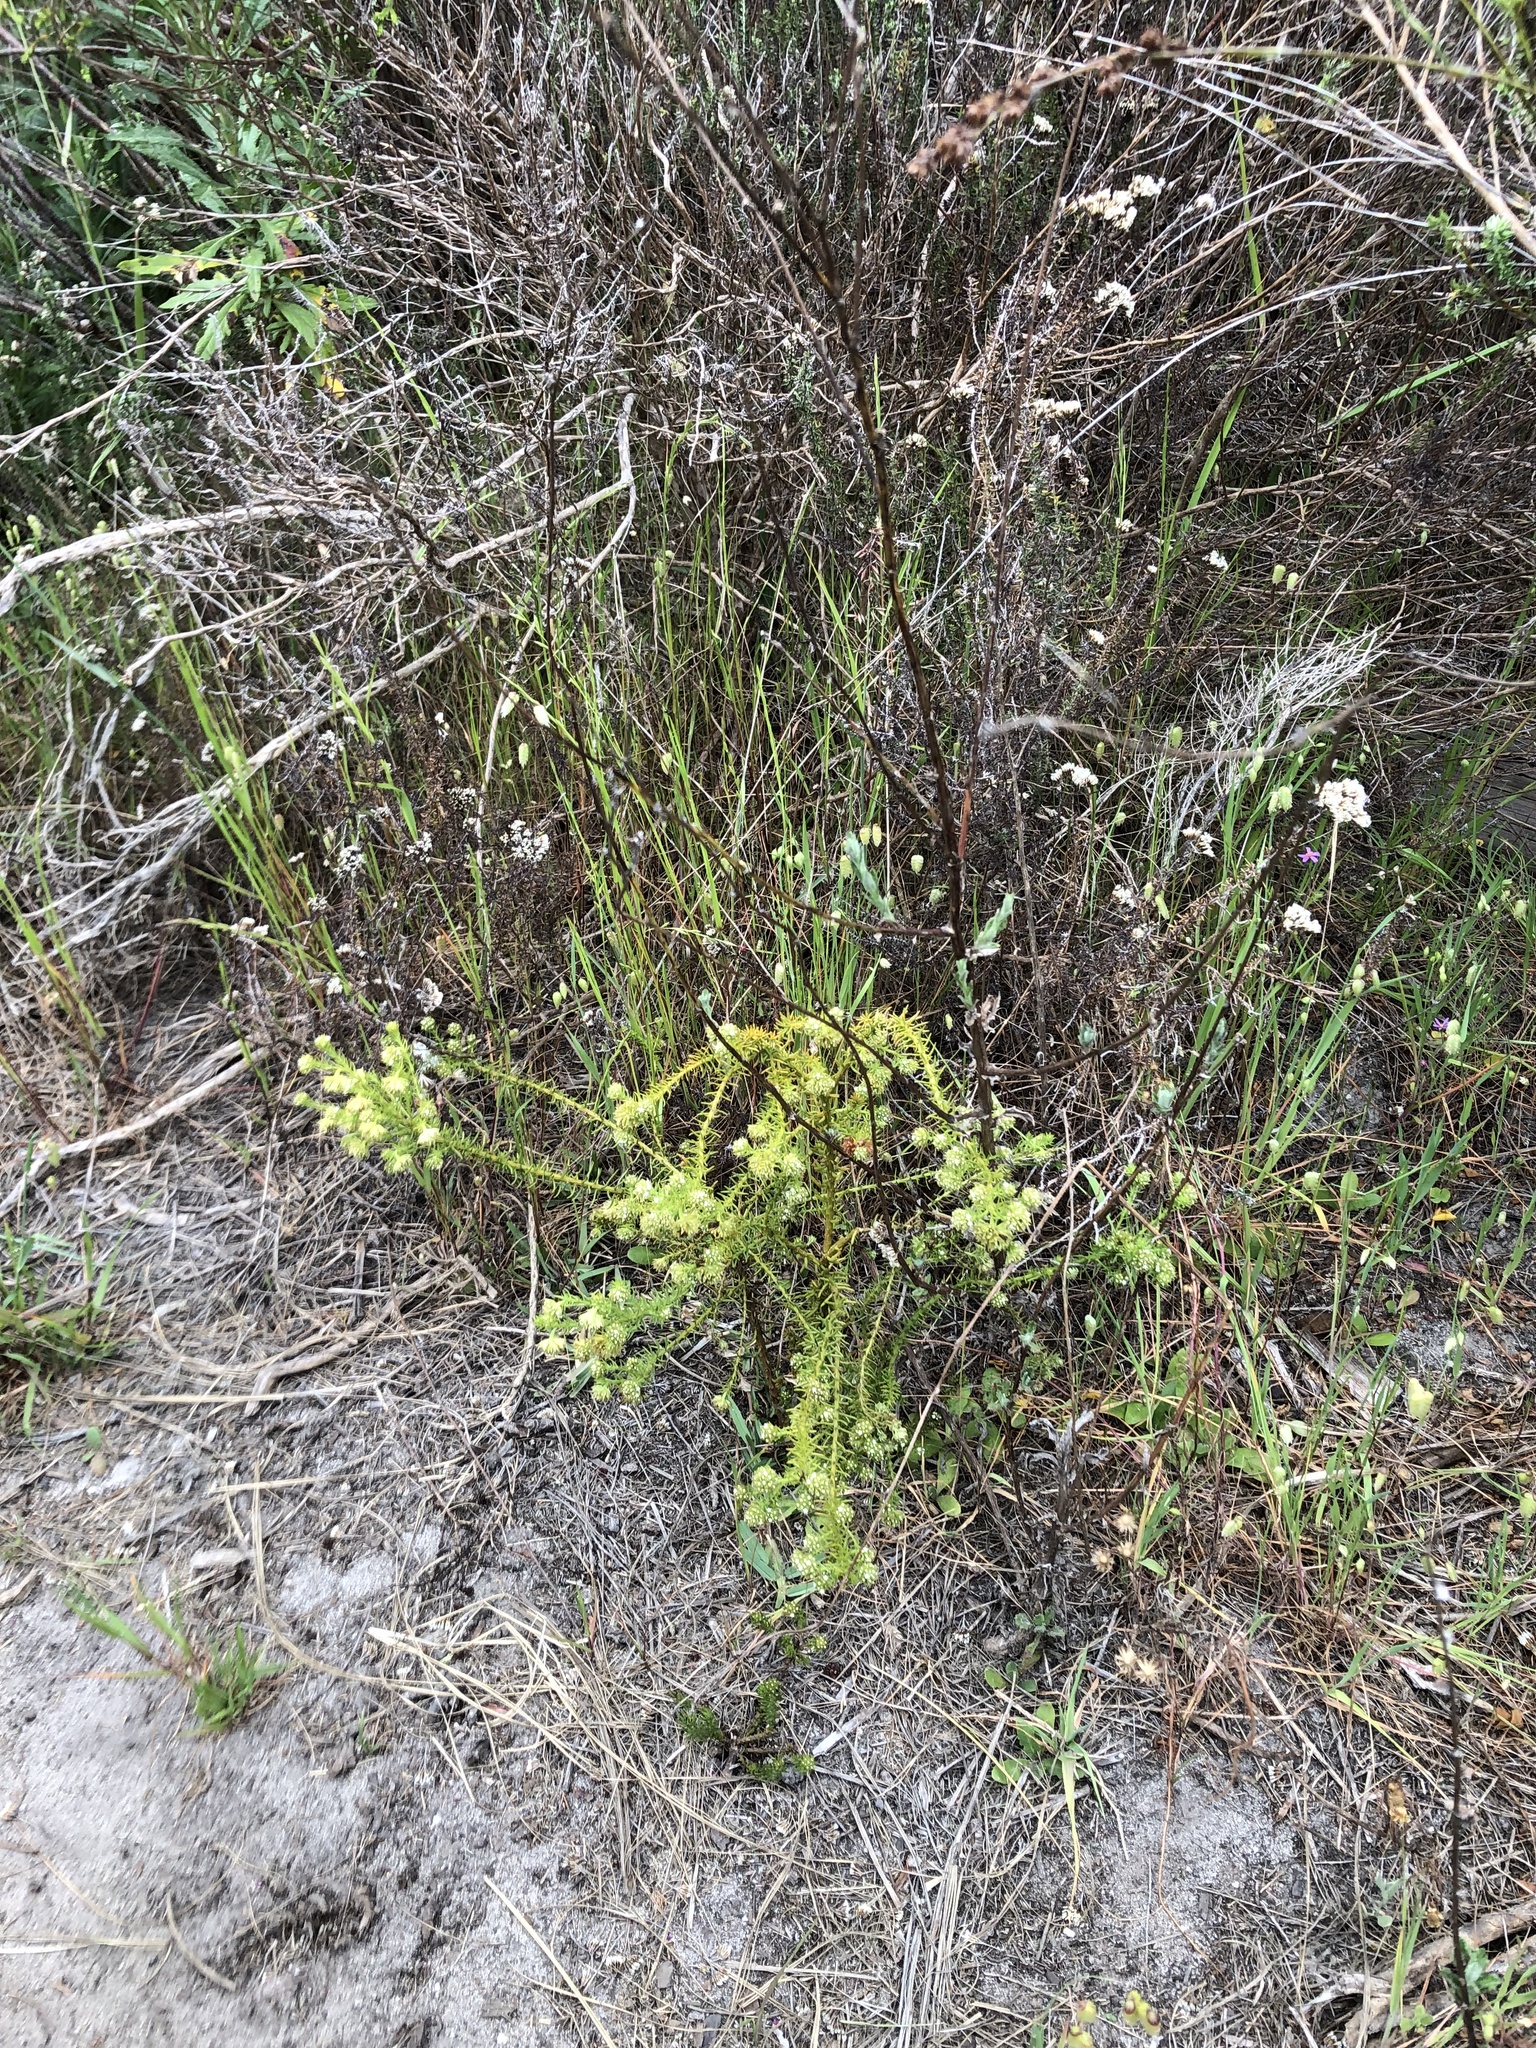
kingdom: Plantae
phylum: Tracheophyta
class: Magnoliopsida
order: Santalales
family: Thesiaceae
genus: Thesium
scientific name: Thesium scabrum
